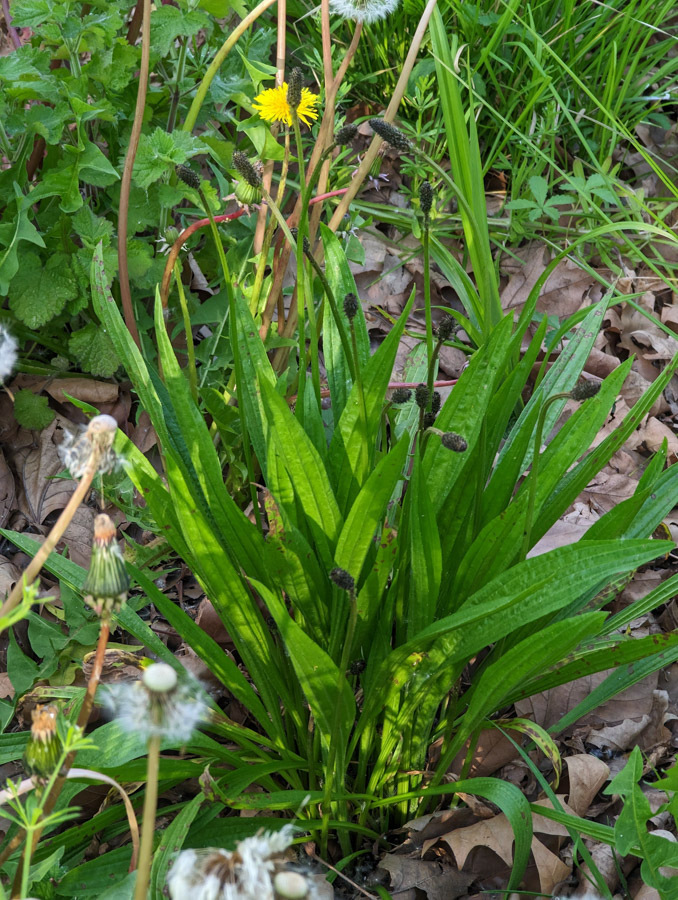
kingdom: Plantae
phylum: Tracheophyta
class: Magnoliopsida
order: Lamiales
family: Plantaginaceae
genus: Plantago
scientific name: Plantago lanceolata
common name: Ribwort plantain
